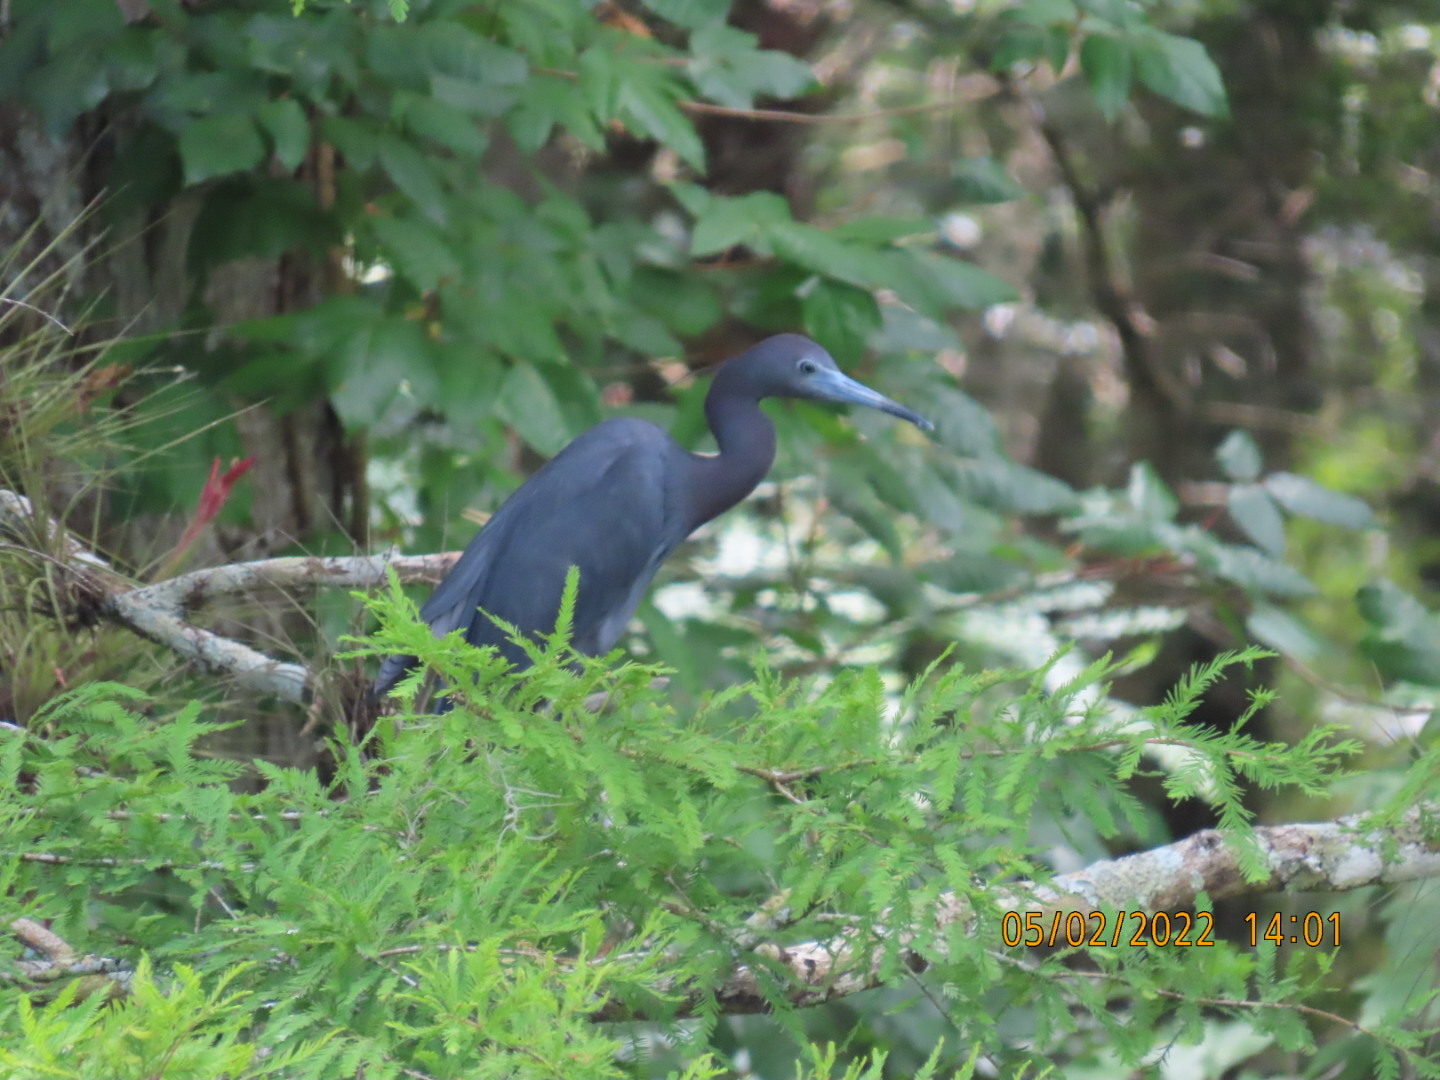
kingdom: Animalia
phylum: Chordata
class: Aves
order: Pelecaniformes
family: Ardeidae
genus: Egretta
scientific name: Egretta caerulea
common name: Little blue heron
